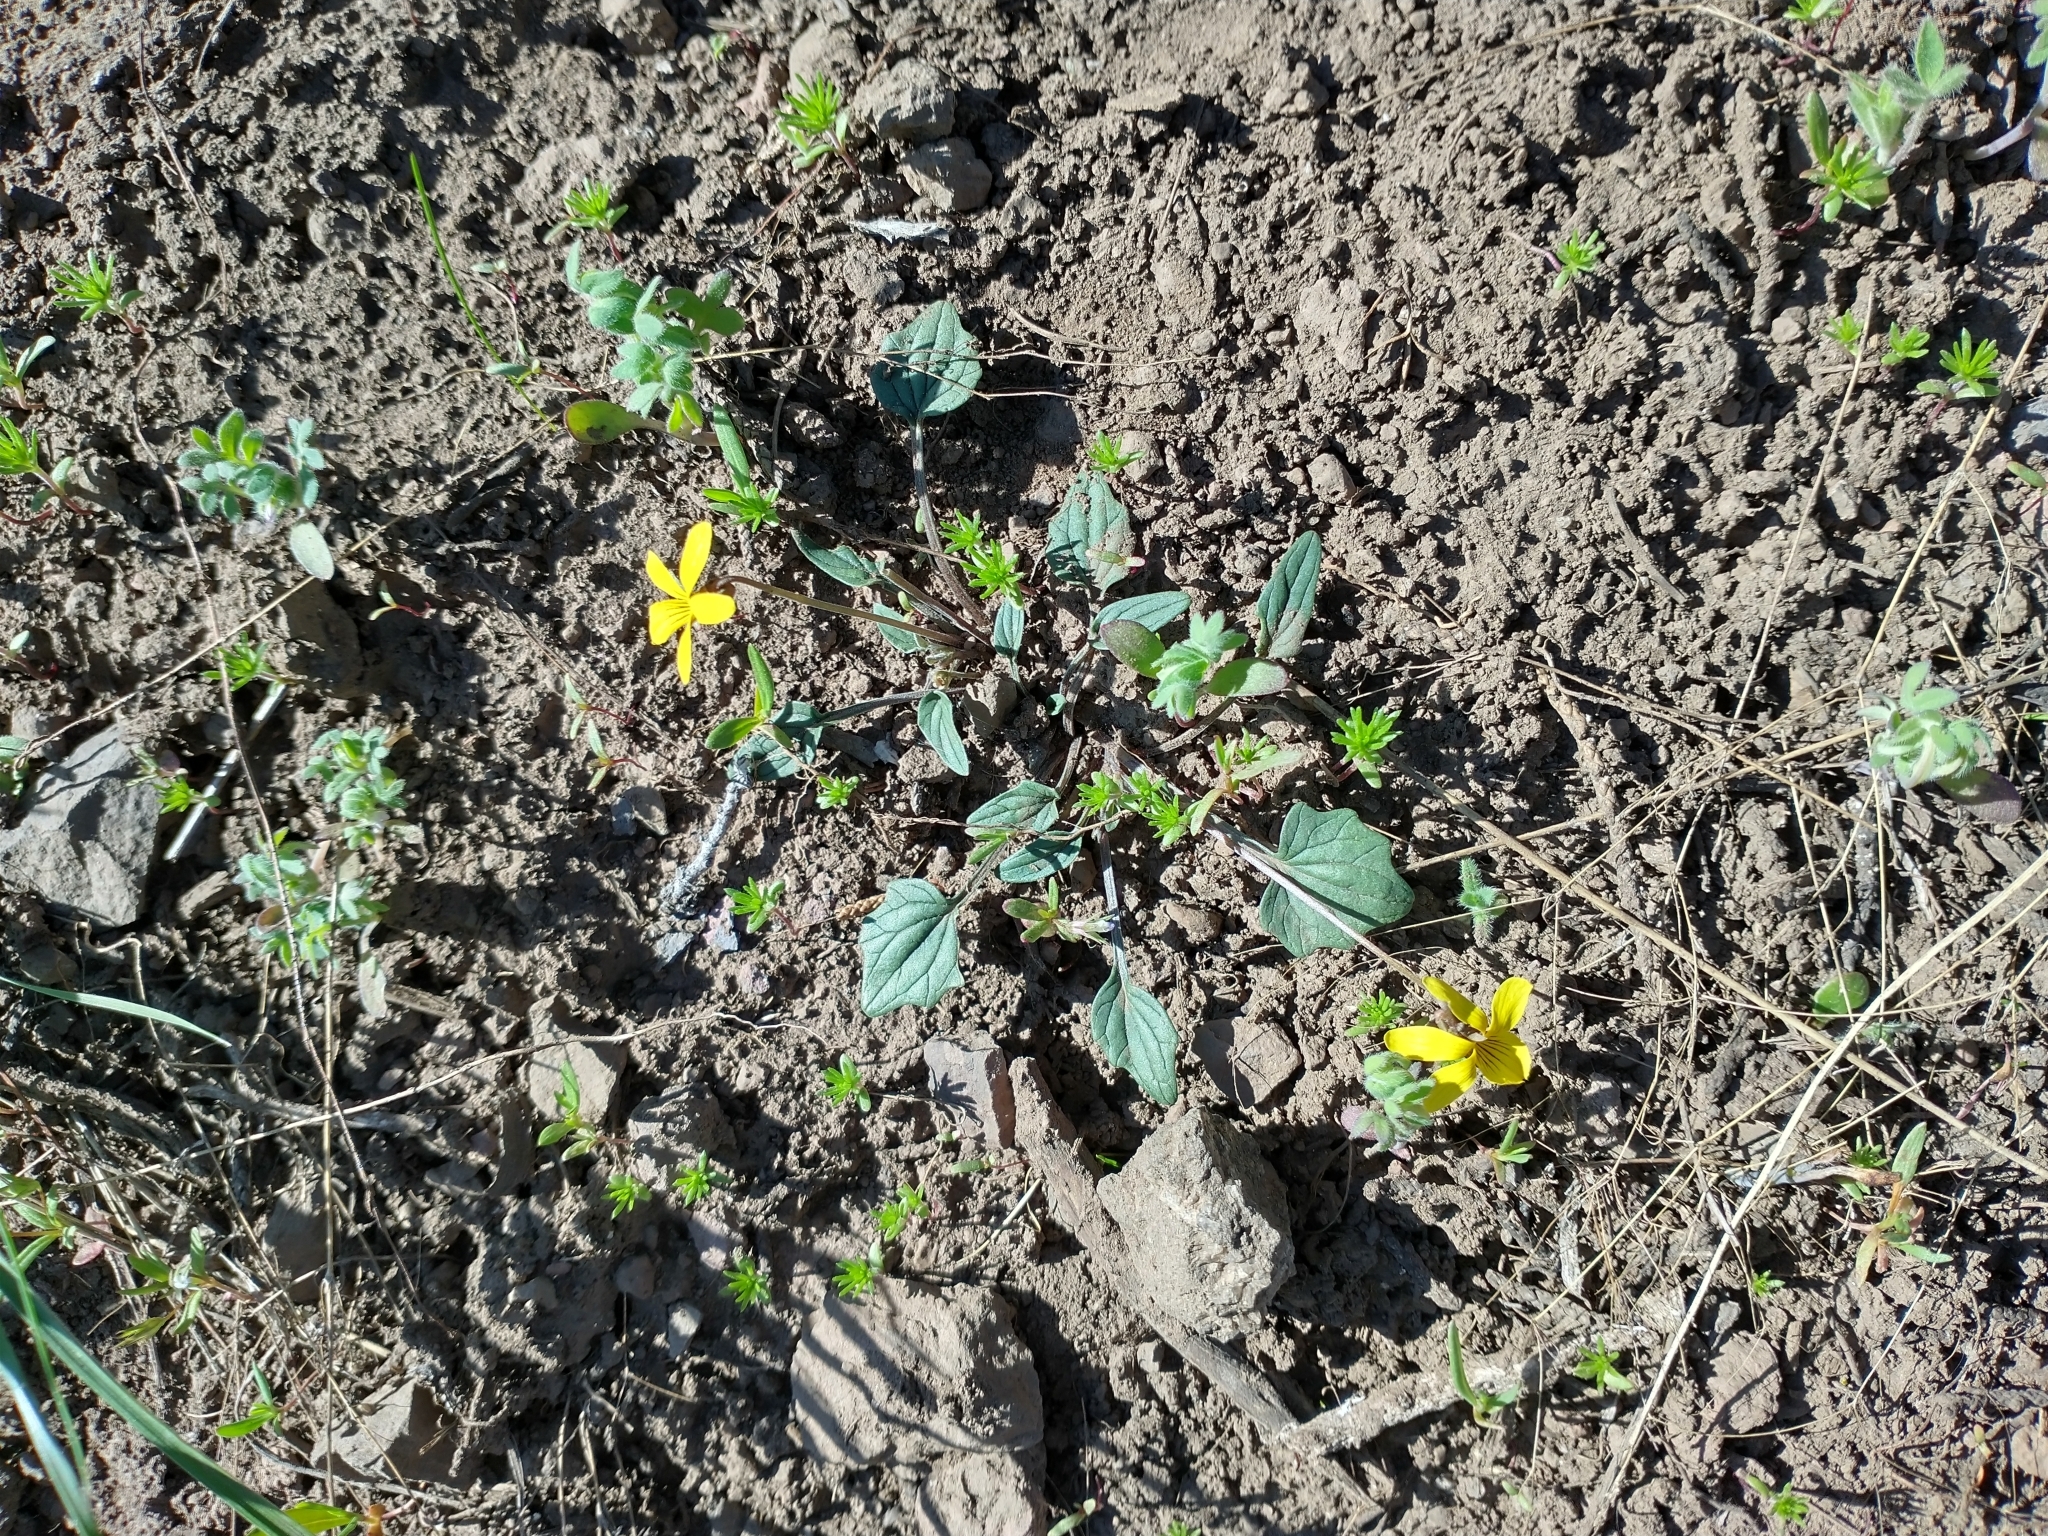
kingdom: Plantae
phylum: Tracheophyta
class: Magnoliopsida
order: Malpighiales
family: Violaceae
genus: Viola
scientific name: Viola purpurea
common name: Pine violet
